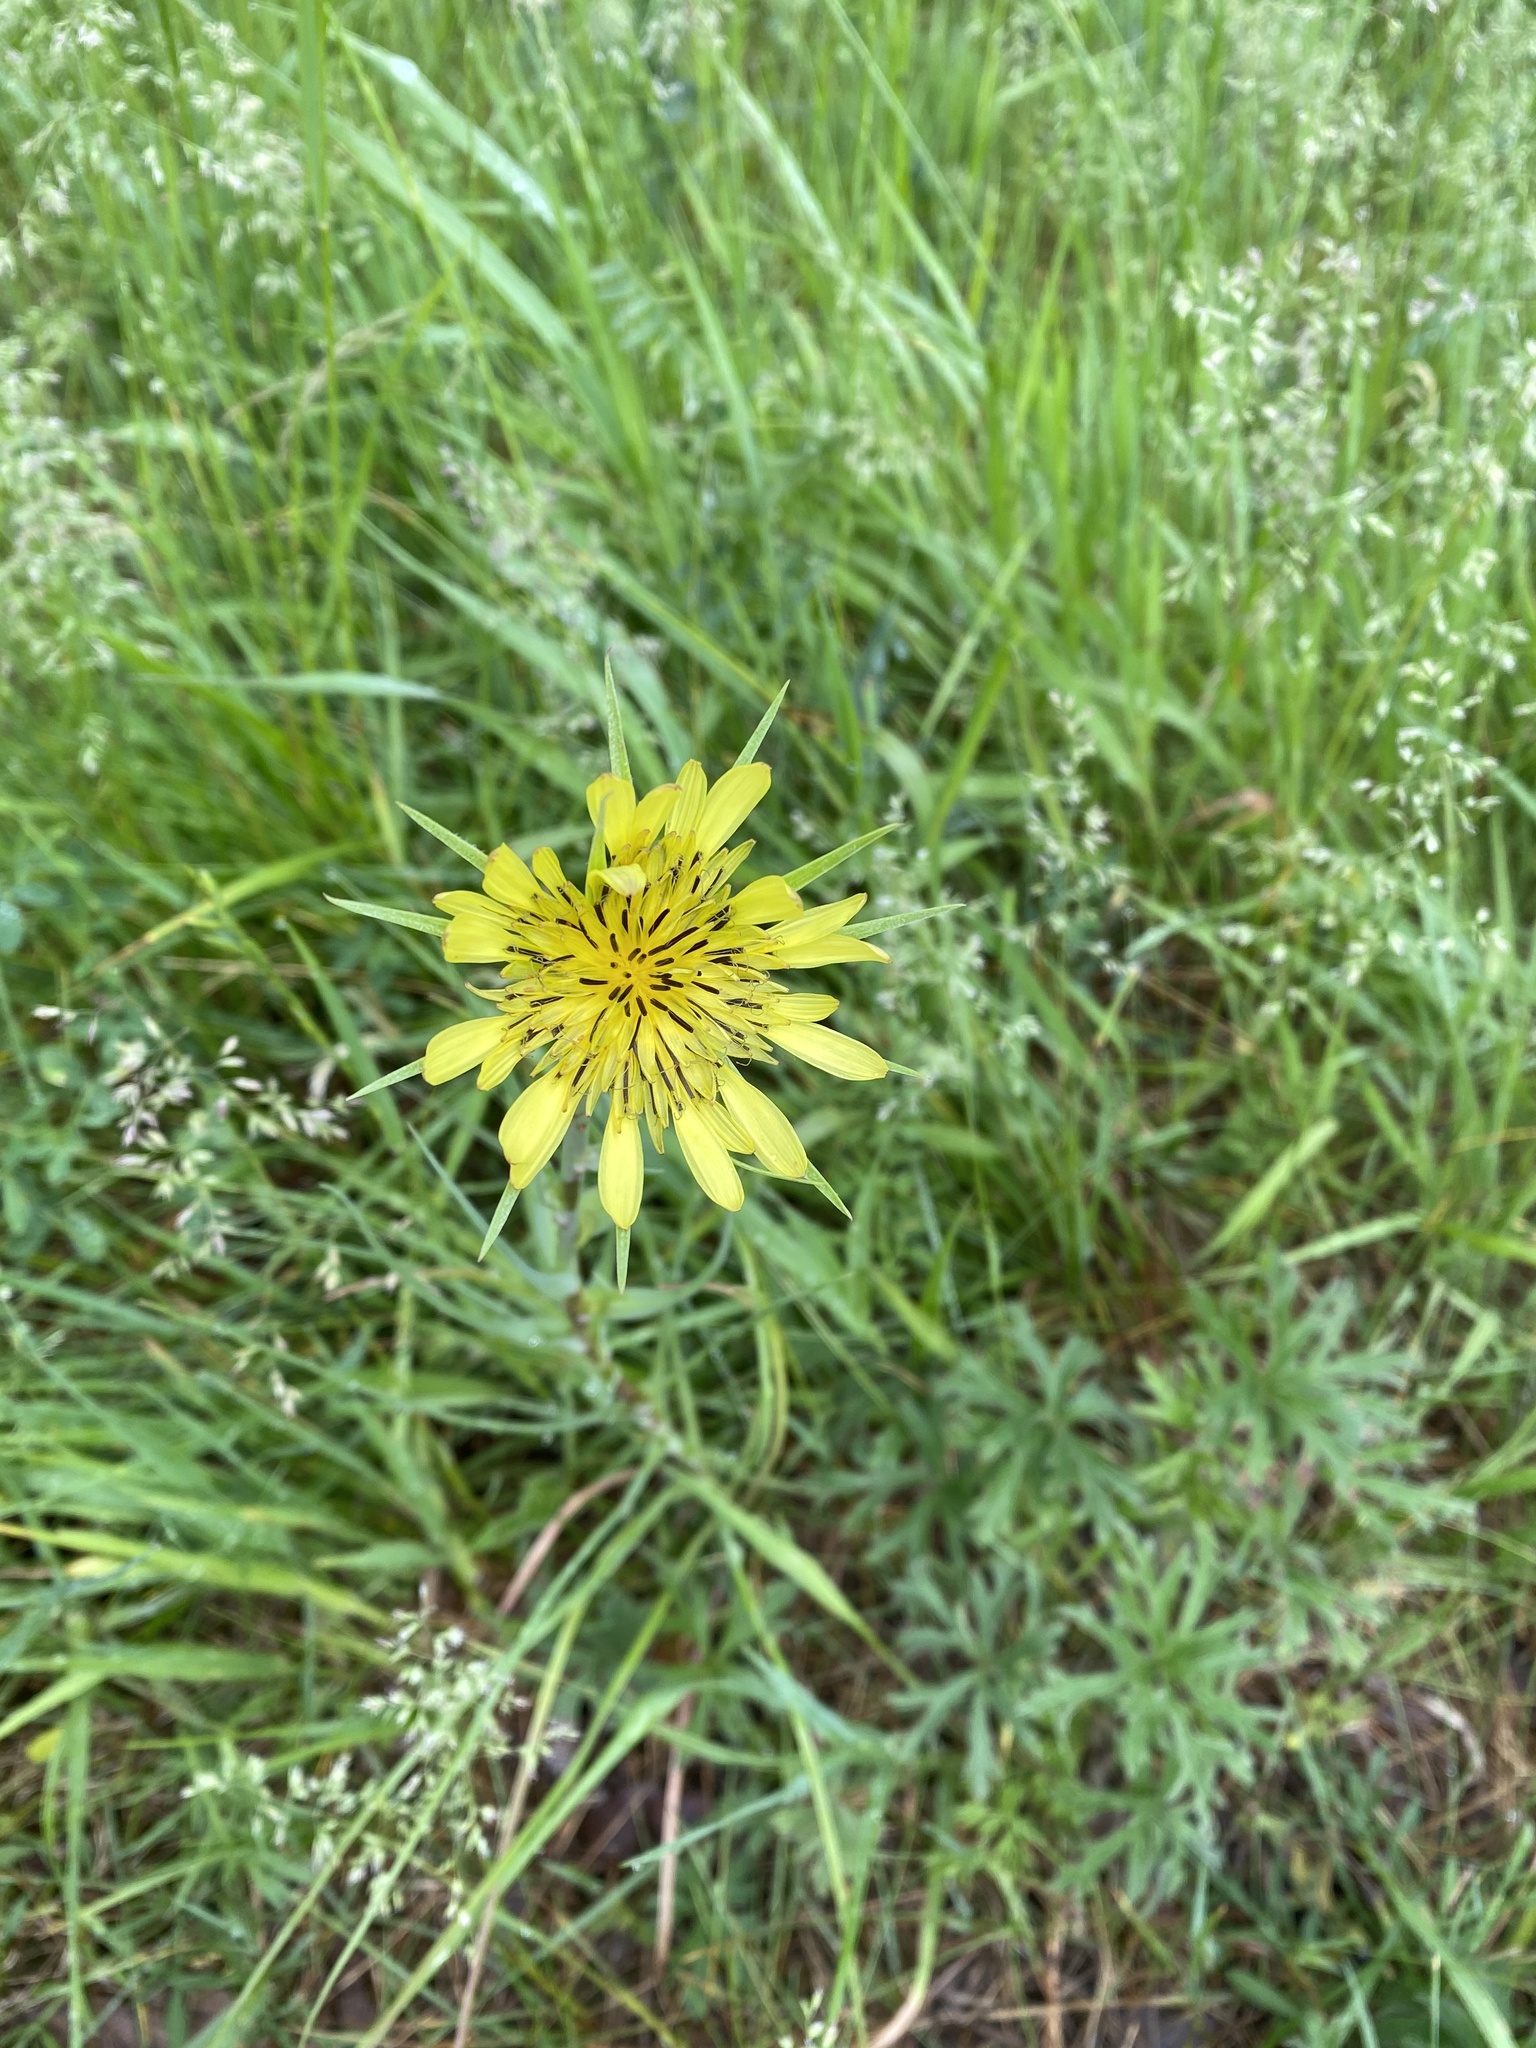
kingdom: Plantae
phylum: Tracheophyta
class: Magnoliopsida
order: Asterales
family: Asteraceae
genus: Tragopogon
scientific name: Tragopogon pratensis
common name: Goat's-beard
